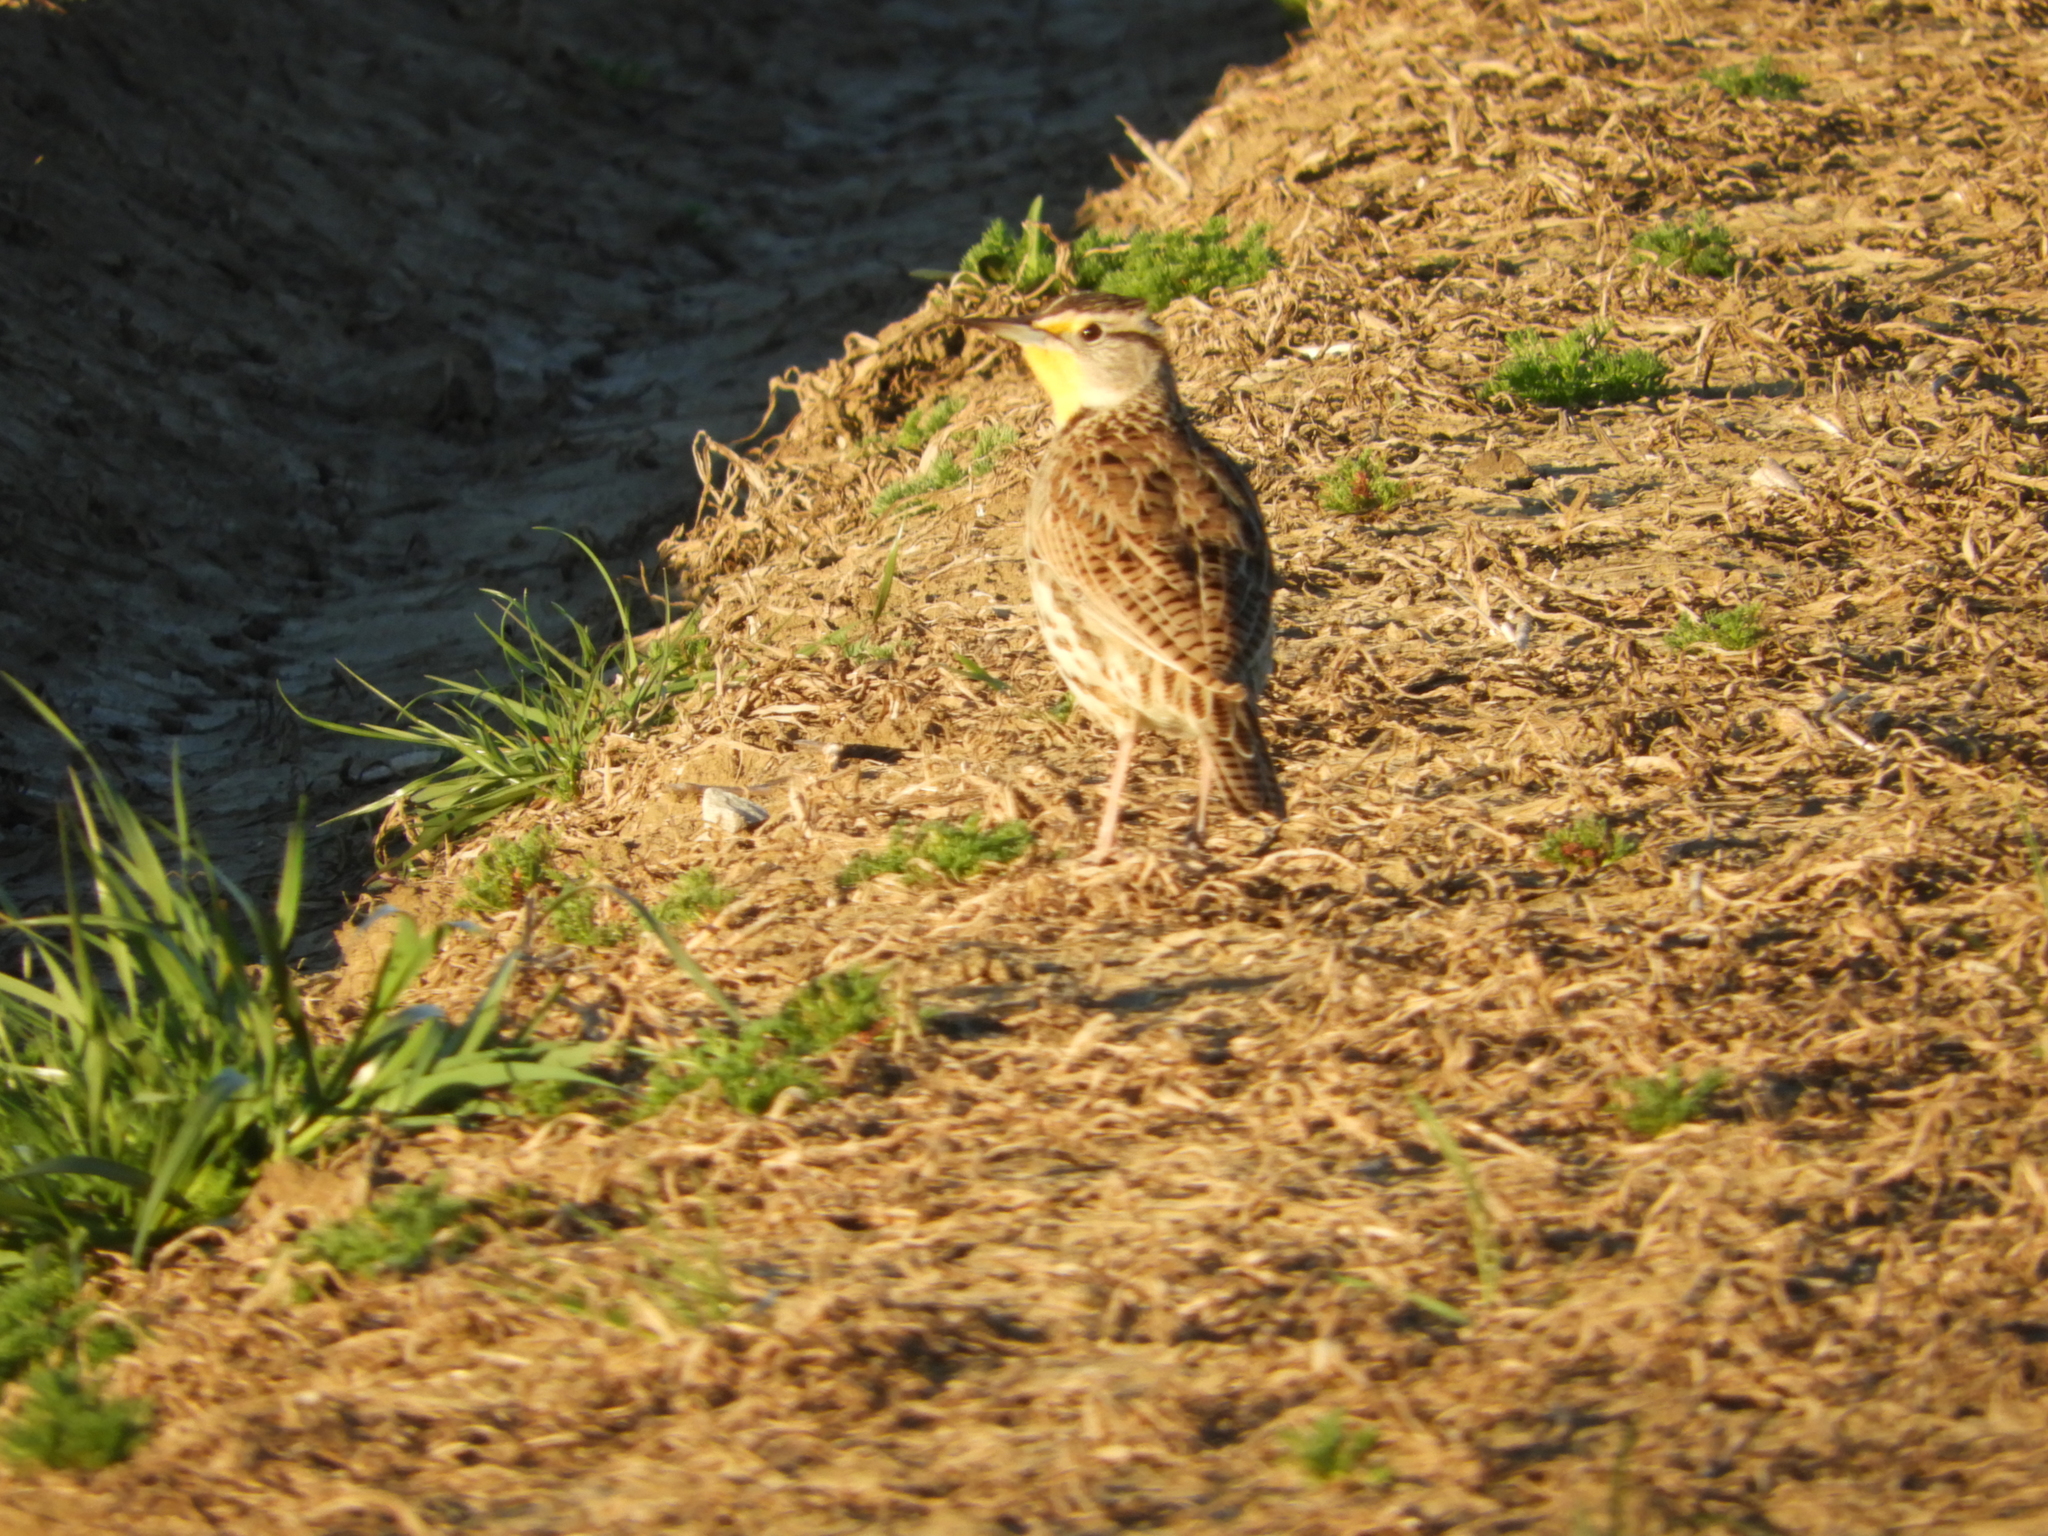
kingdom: Animalia
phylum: Chordata
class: Aves
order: Passeriformes
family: Icteridae
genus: Sturnella
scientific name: Sturnella neglecta
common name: Western meadowlark
